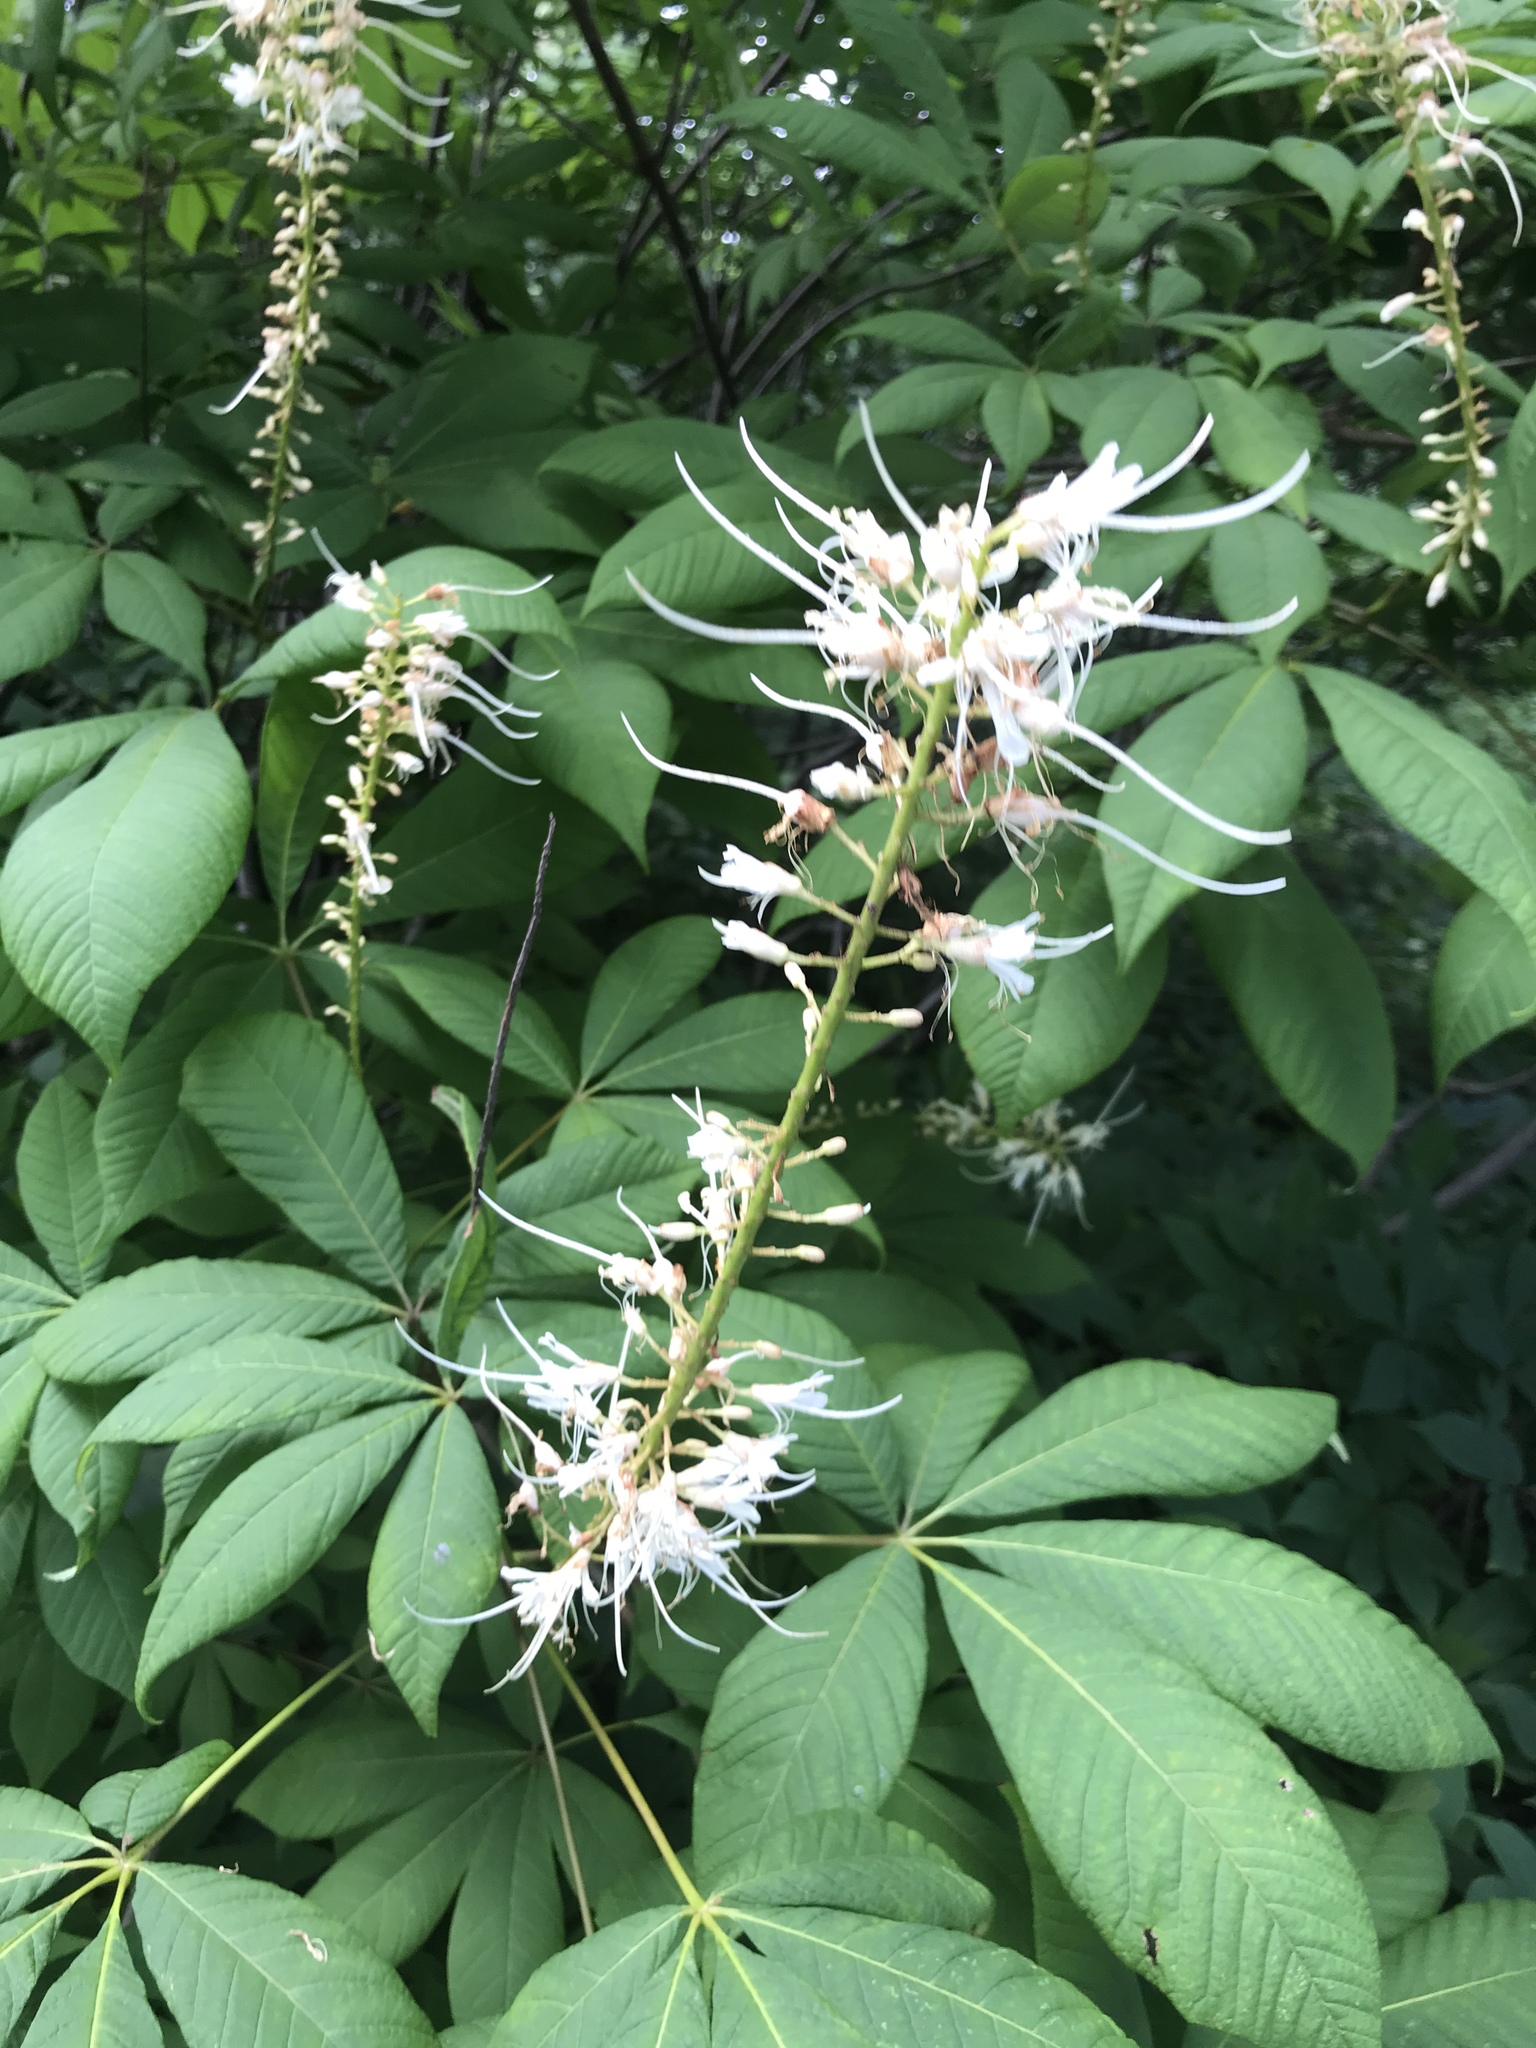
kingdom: Plantae
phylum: Tracheophyta
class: Magnoliopsida
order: Sapindales
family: Sapindaceae
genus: Aesculus
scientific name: Aesculus parviflora
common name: Bottlebrush buckeye
